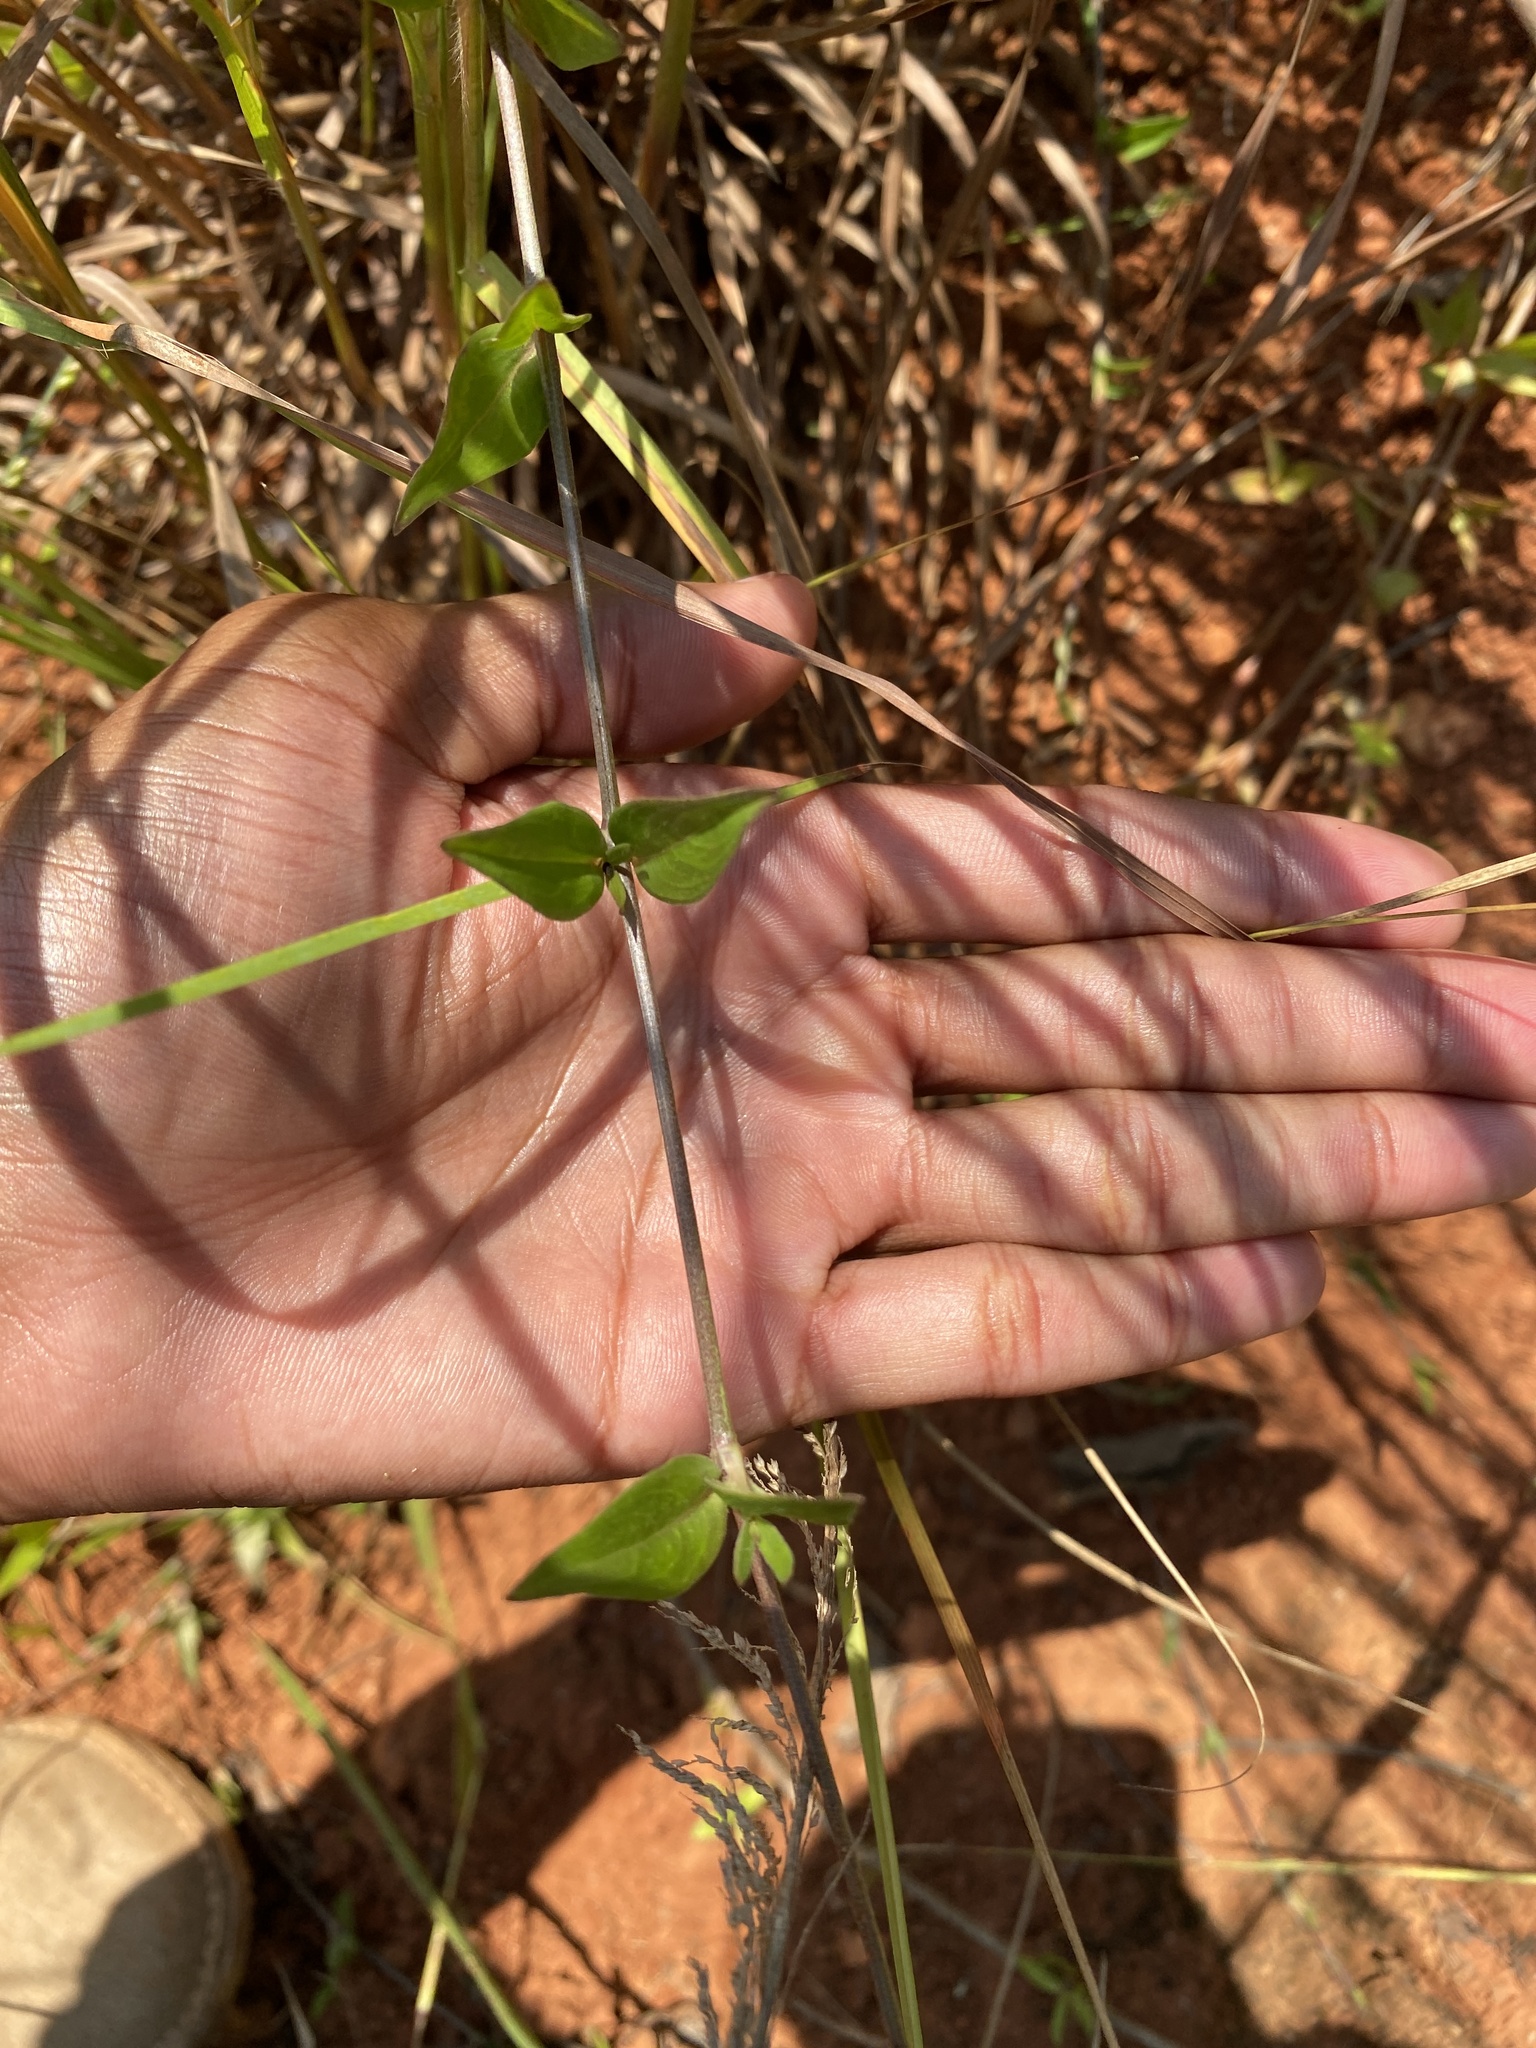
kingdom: Plantae
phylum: Tracheophyta
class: Magnoliopsida
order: Gentianales
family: Rubiaceae
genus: Oldenlandia
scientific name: Oldenlandia affinis
